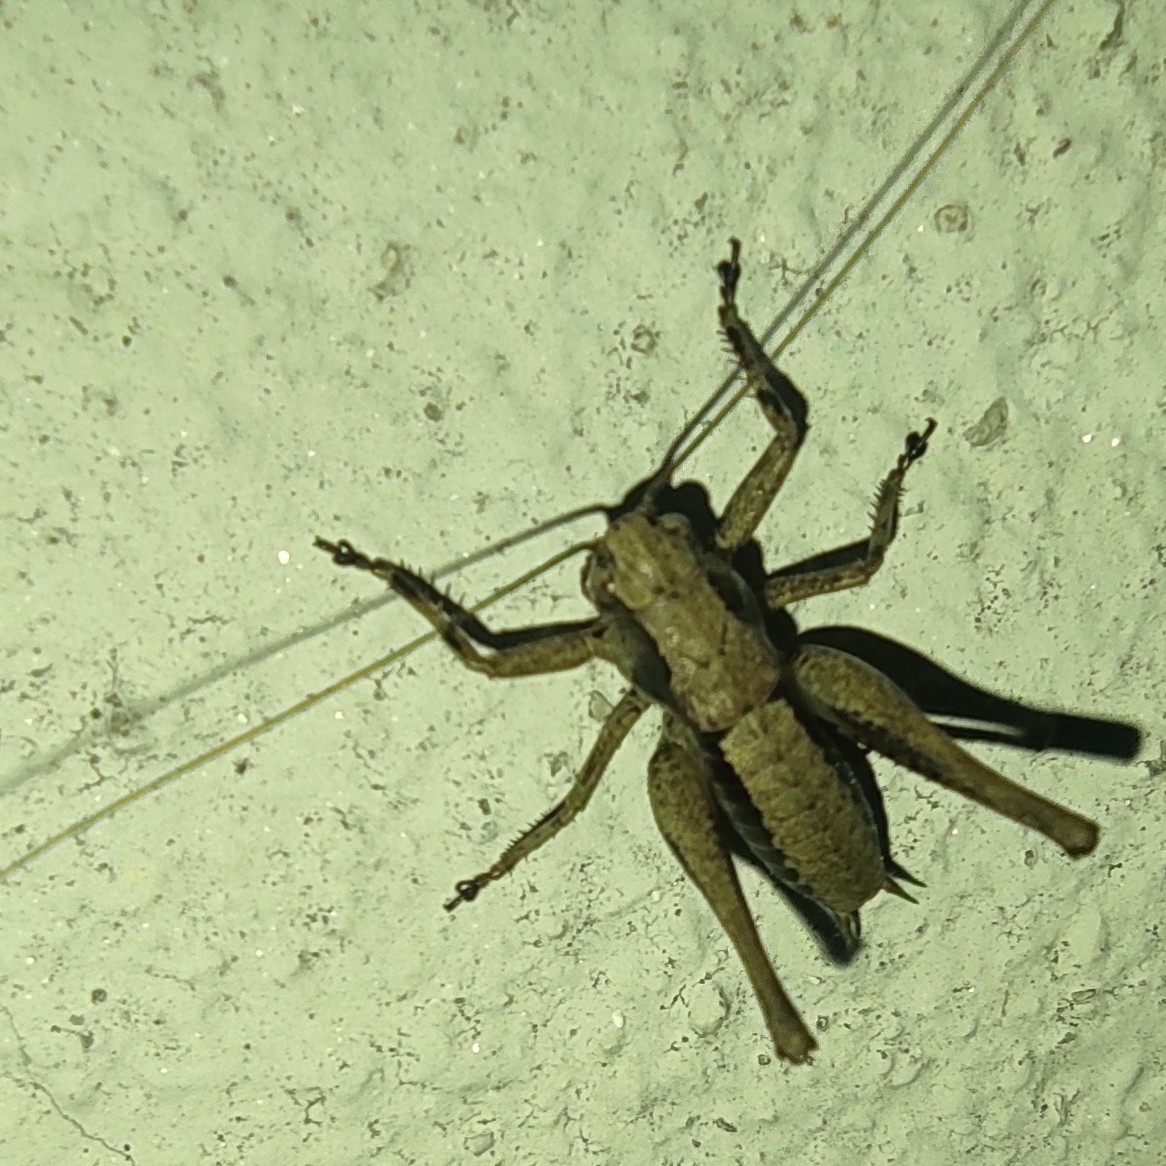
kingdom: Animalia
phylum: Arthropoda
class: Insecta
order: Orthoptera
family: Tettigoniidae
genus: Pholidoptera
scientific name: Pholidoptera griseoaptera
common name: Dark bush-cricket
